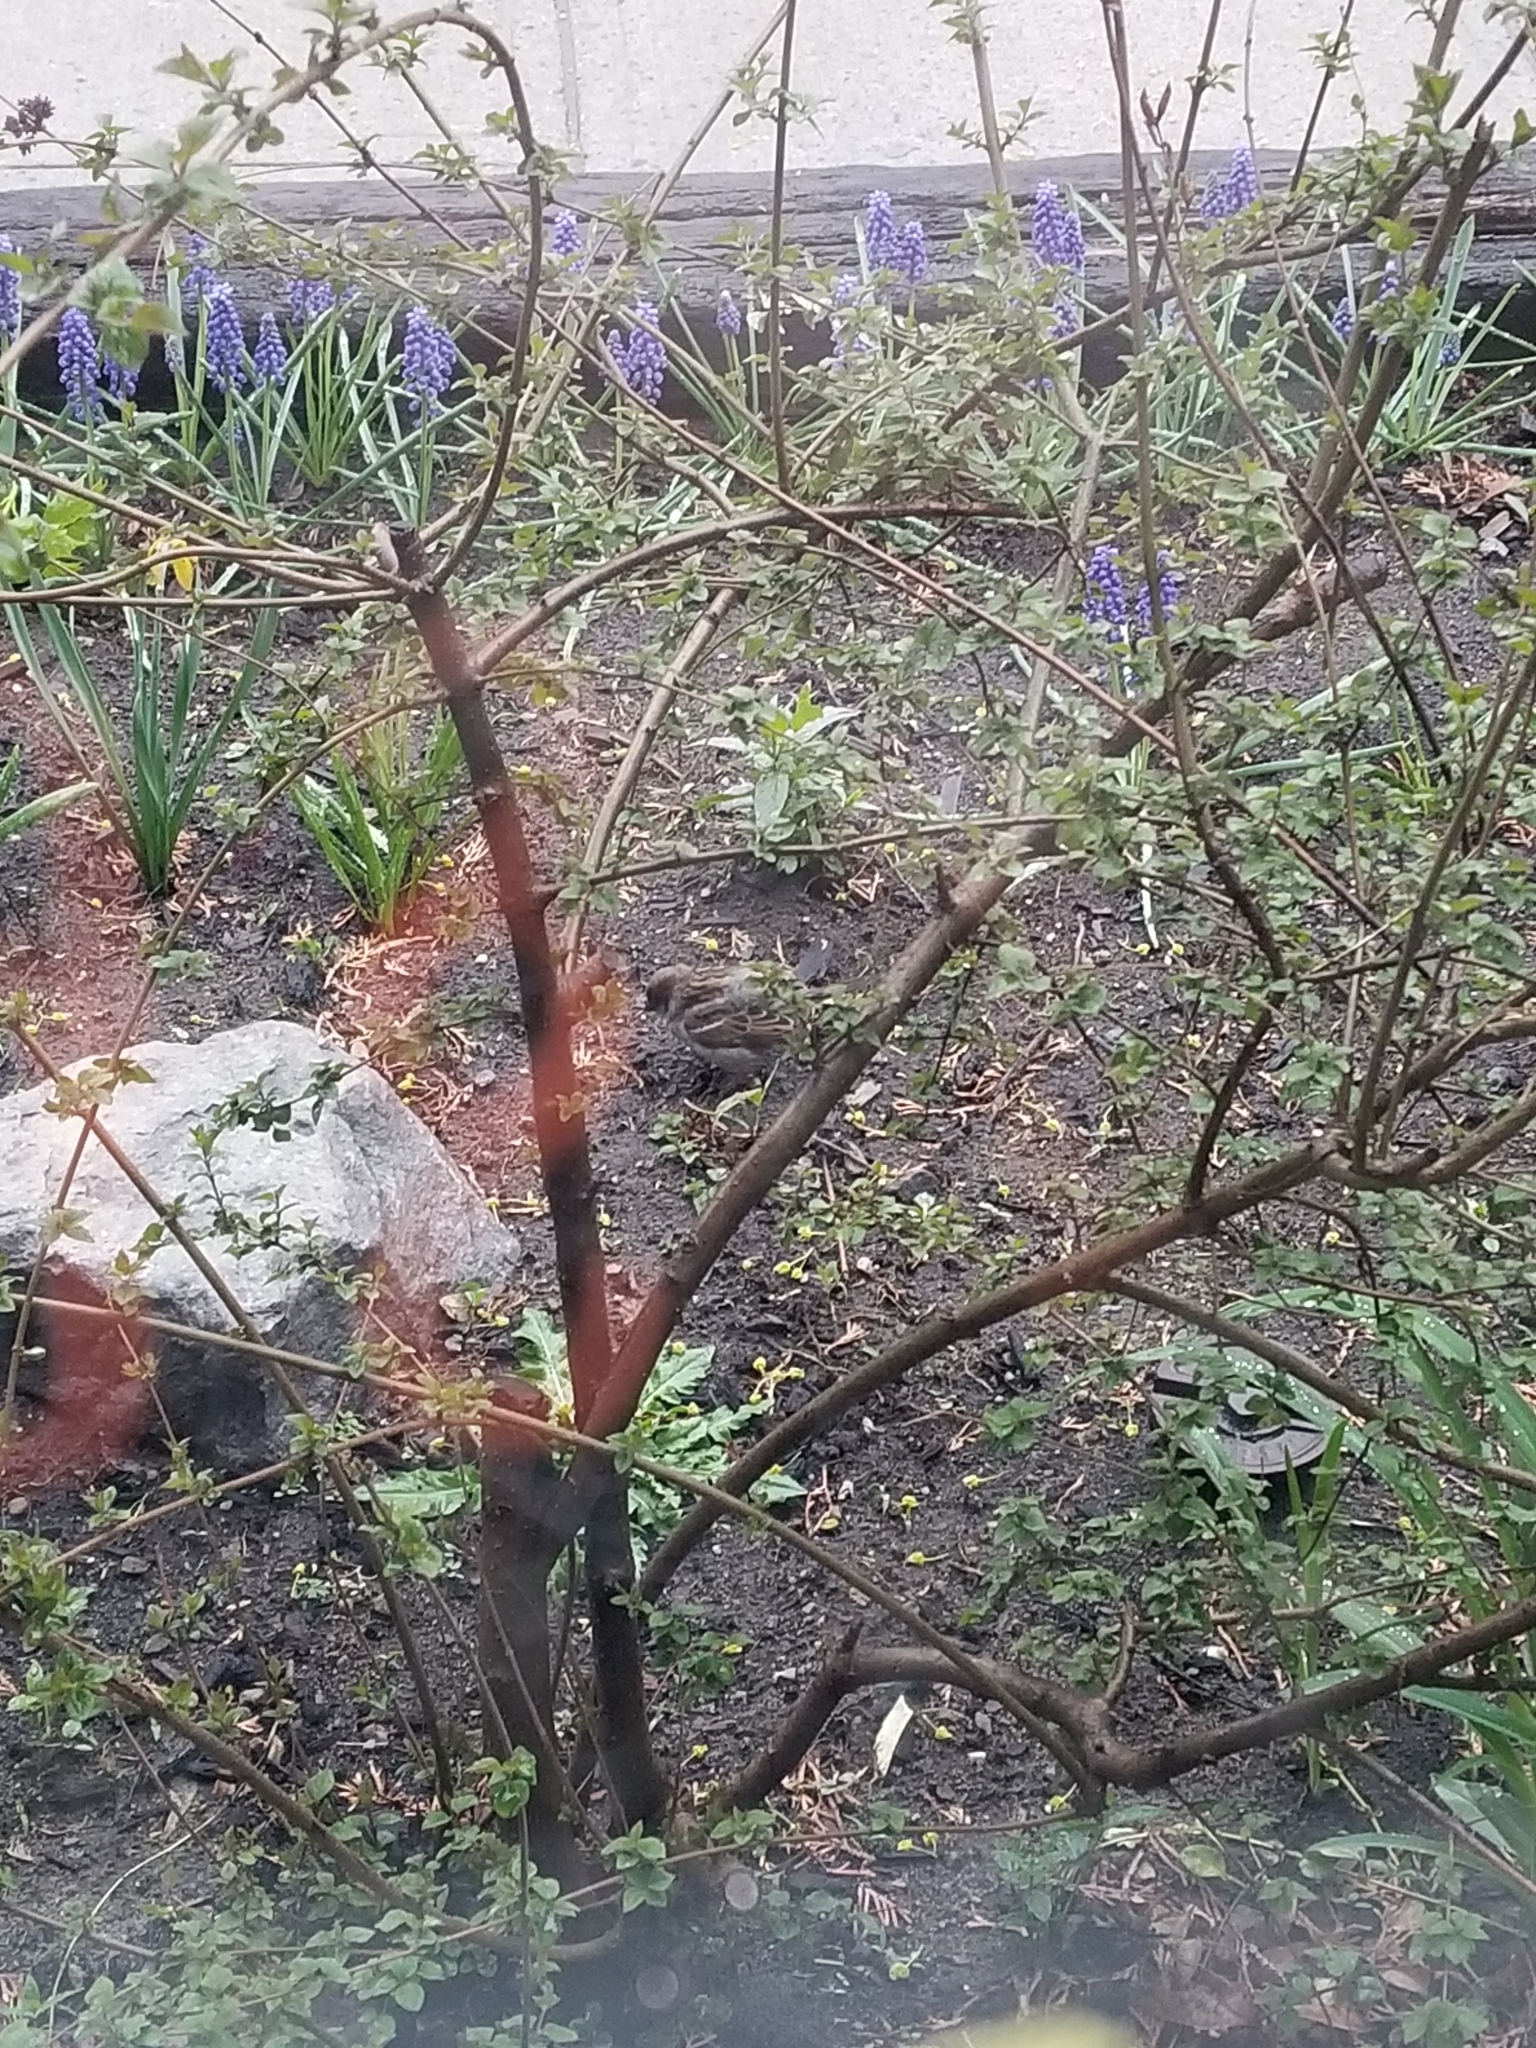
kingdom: Animalia
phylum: Chordata
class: Aves
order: Passeriformes
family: Passeridae
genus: Passer
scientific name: Passer domesticus
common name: House sparrow
